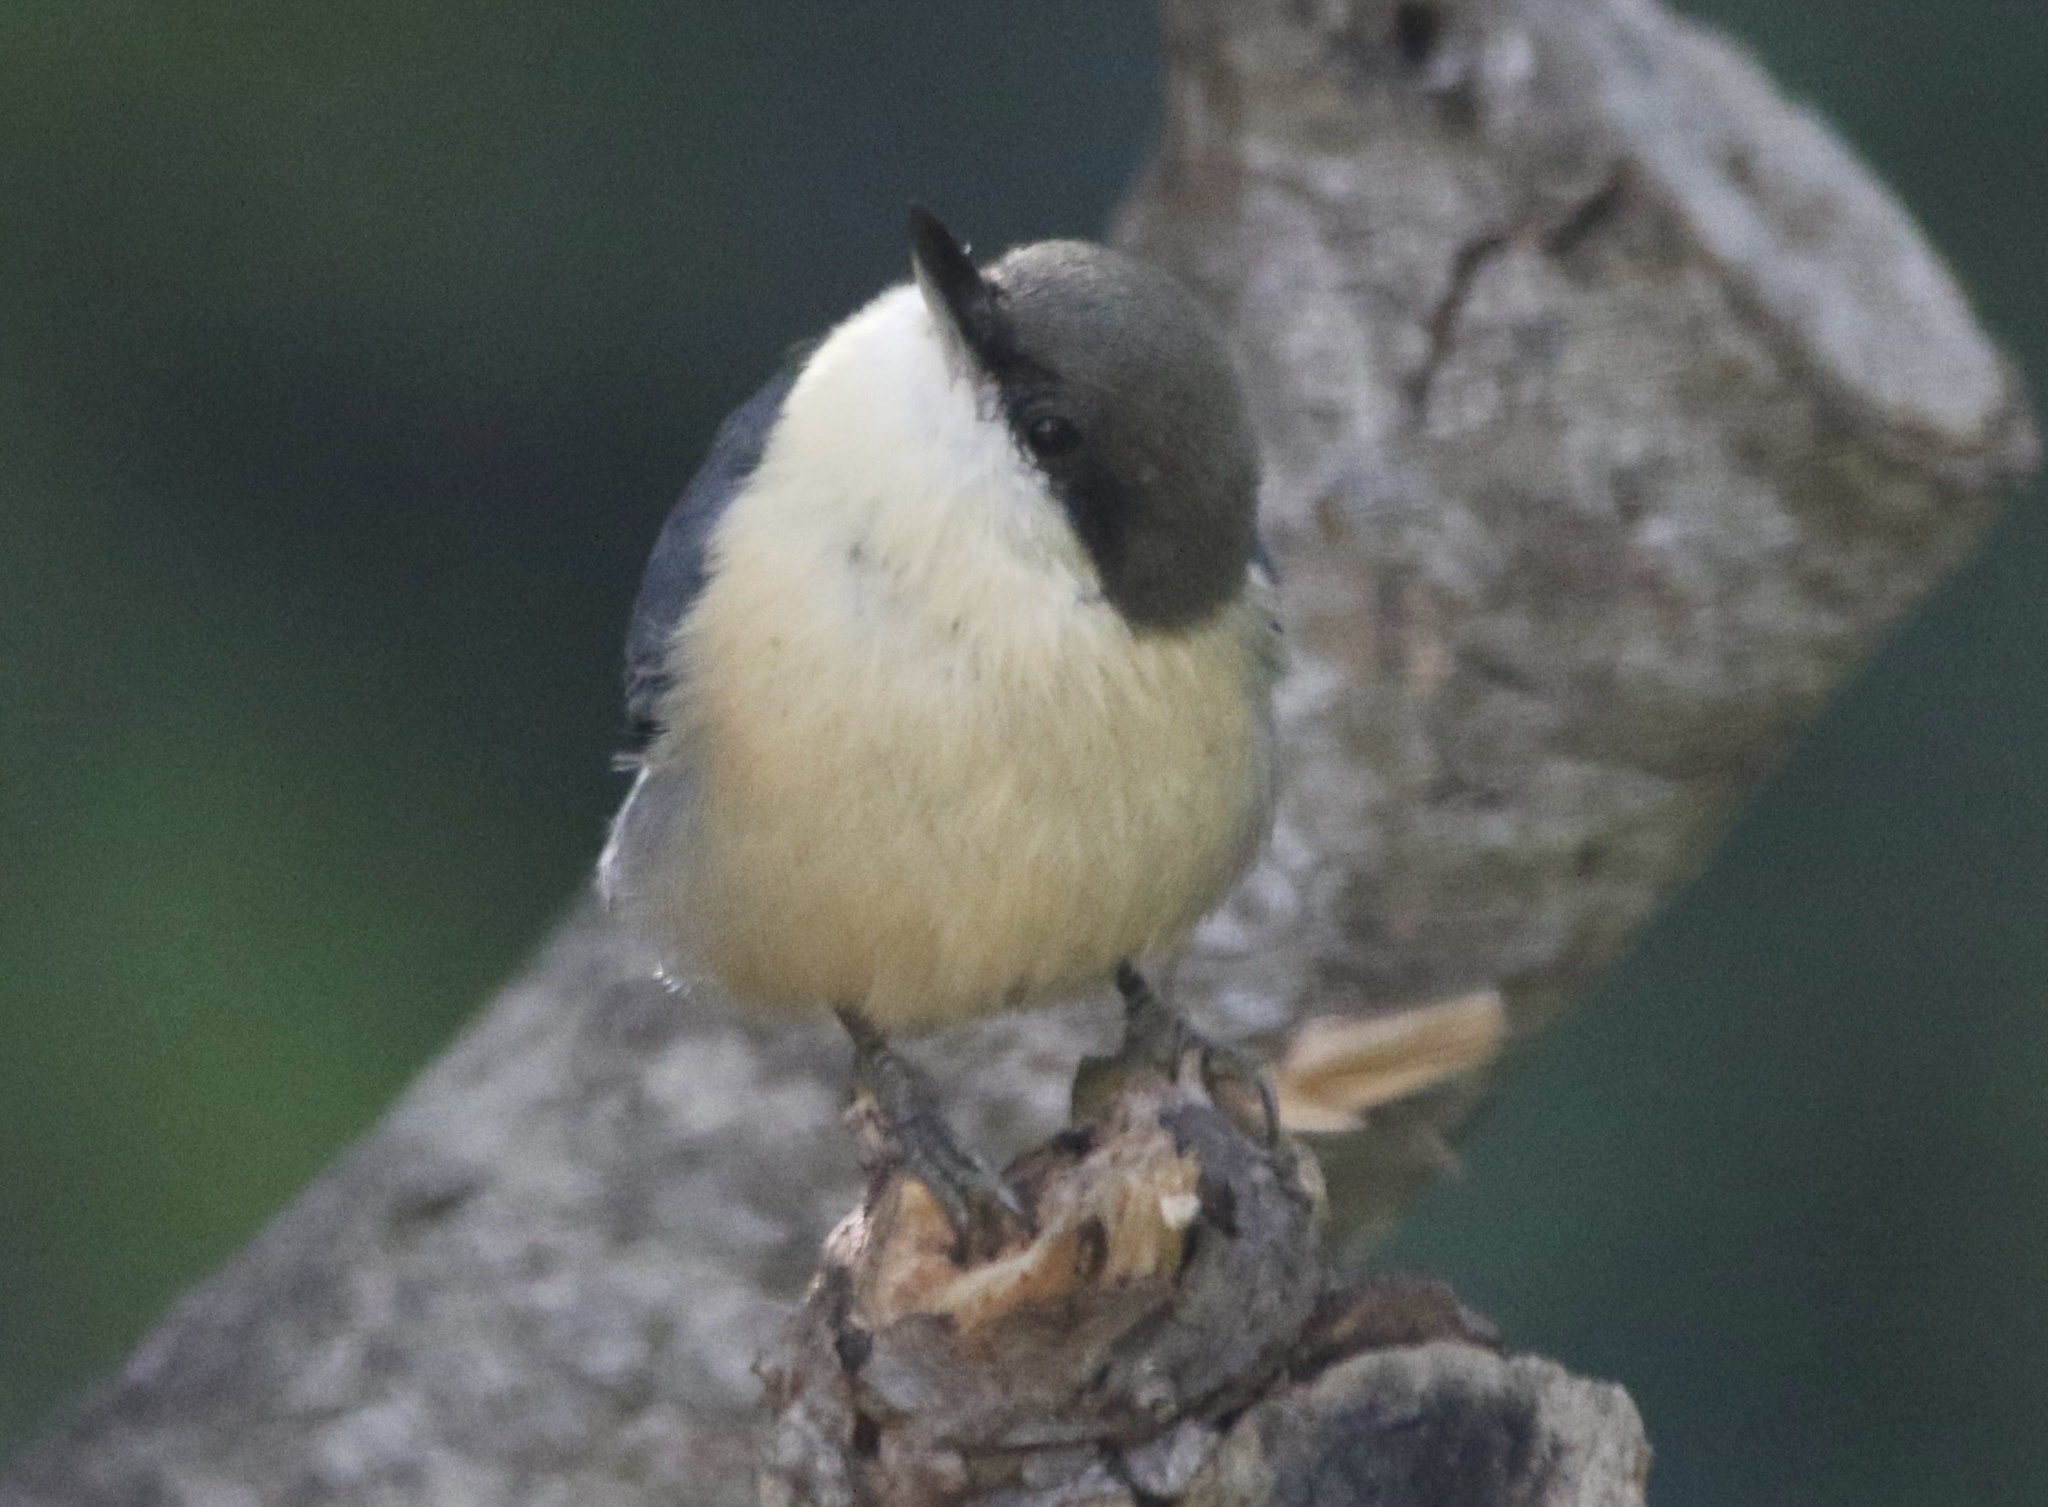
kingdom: Animalia
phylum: Chordata
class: Aves
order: Passeriformes
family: Sittidae
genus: Sitta
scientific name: Sitta pygmaea
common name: Pygmy nuthatch
